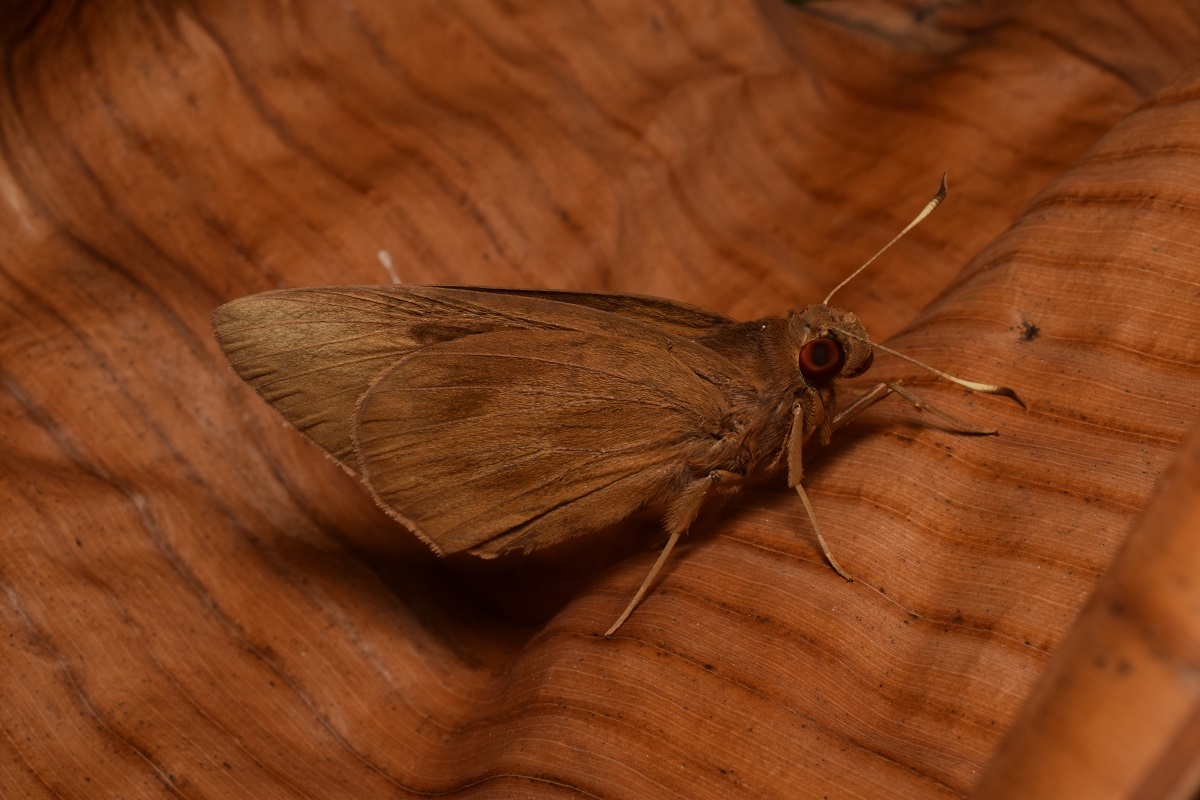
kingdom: Animalia
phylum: Arthropoda
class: Insecta
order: Lepidoptera
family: Hesperiidae
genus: Erionota
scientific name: Erionota torus
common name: Rounded palm-redeye
